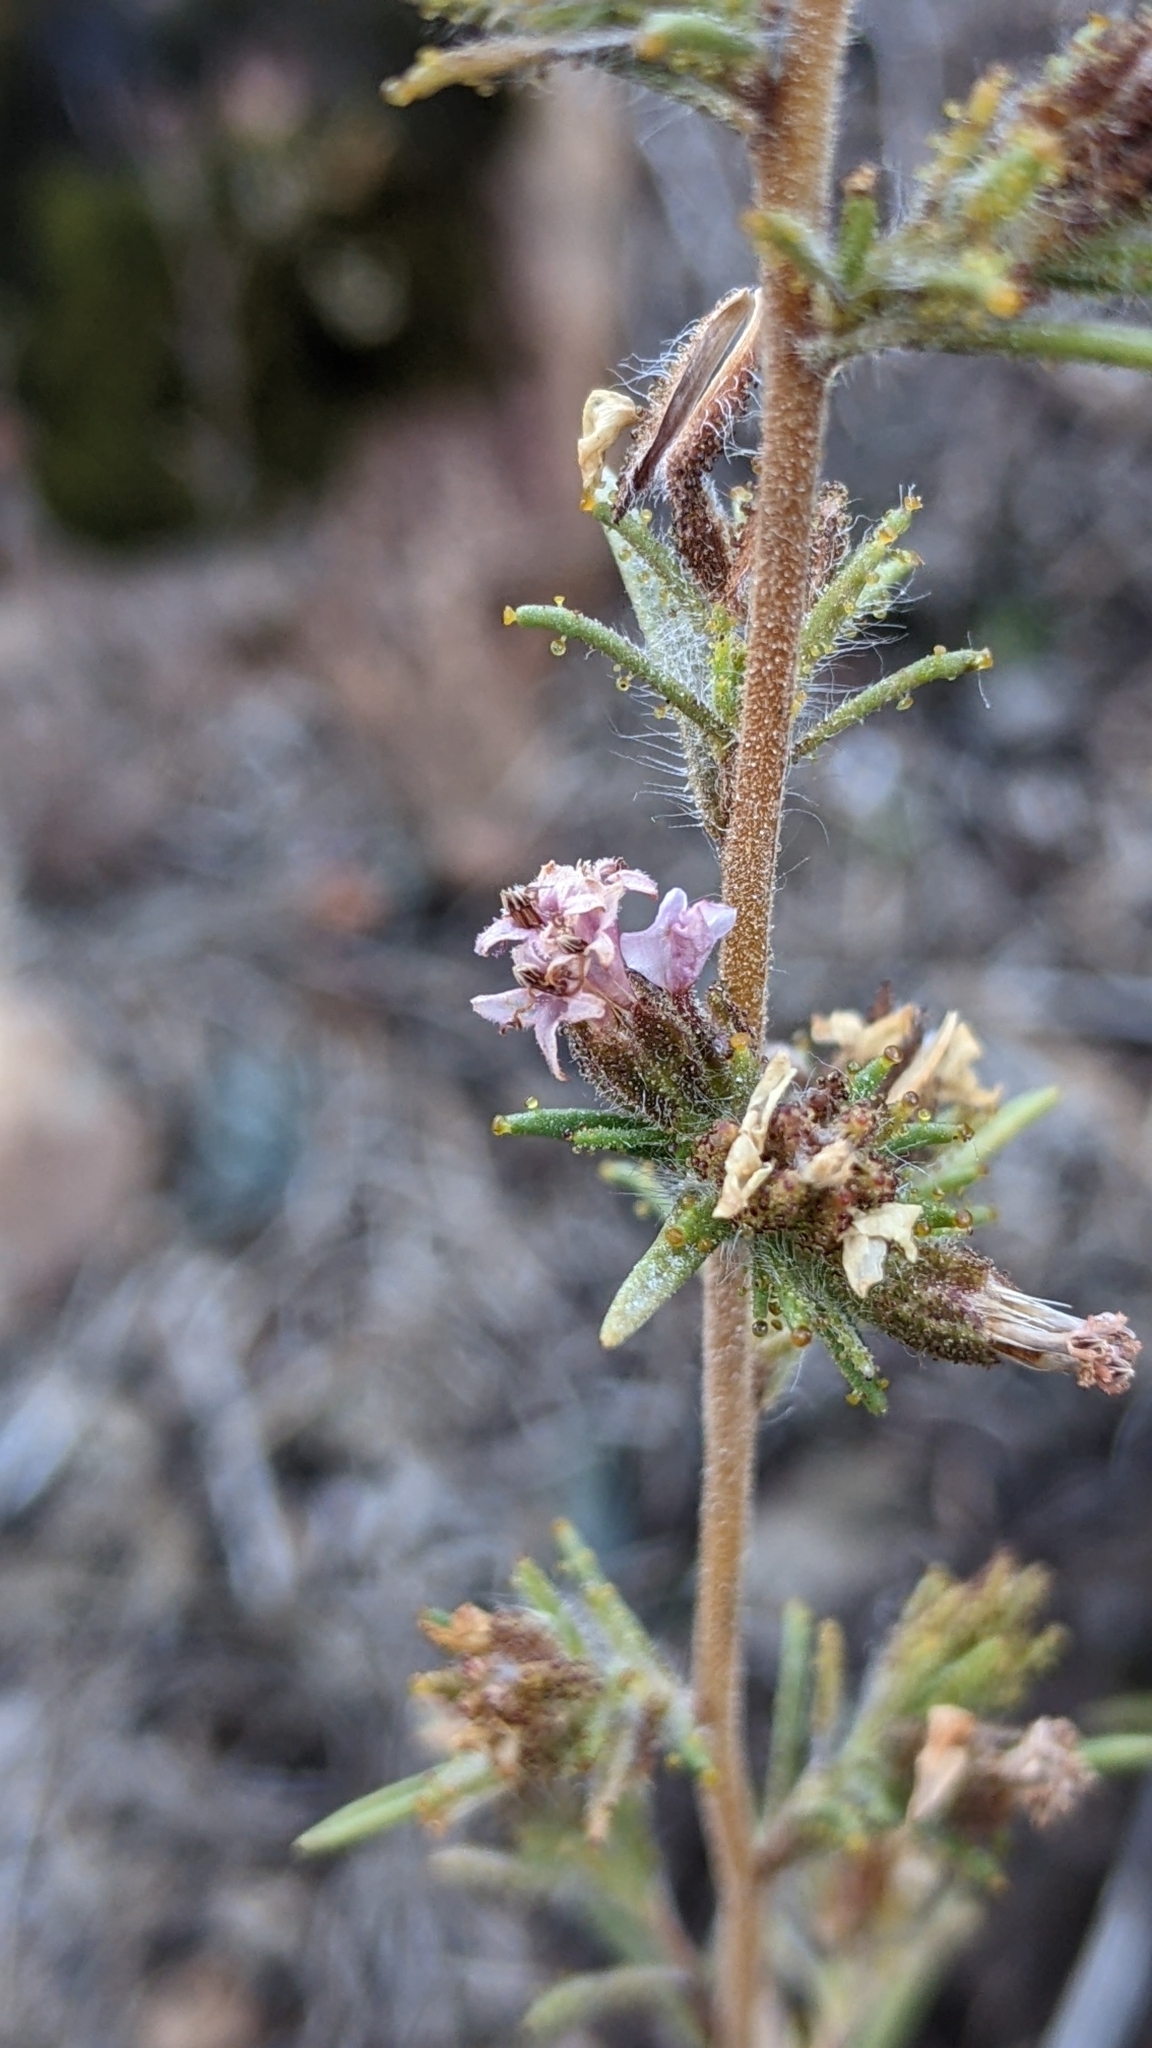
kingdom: Plantae
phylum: Tracheophyta
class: Magnoliopsida
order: Asterales
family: Asteraceae
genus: Calycadenia
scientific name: Calycadenia multiglandulosa
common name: Sticky calycadenia
